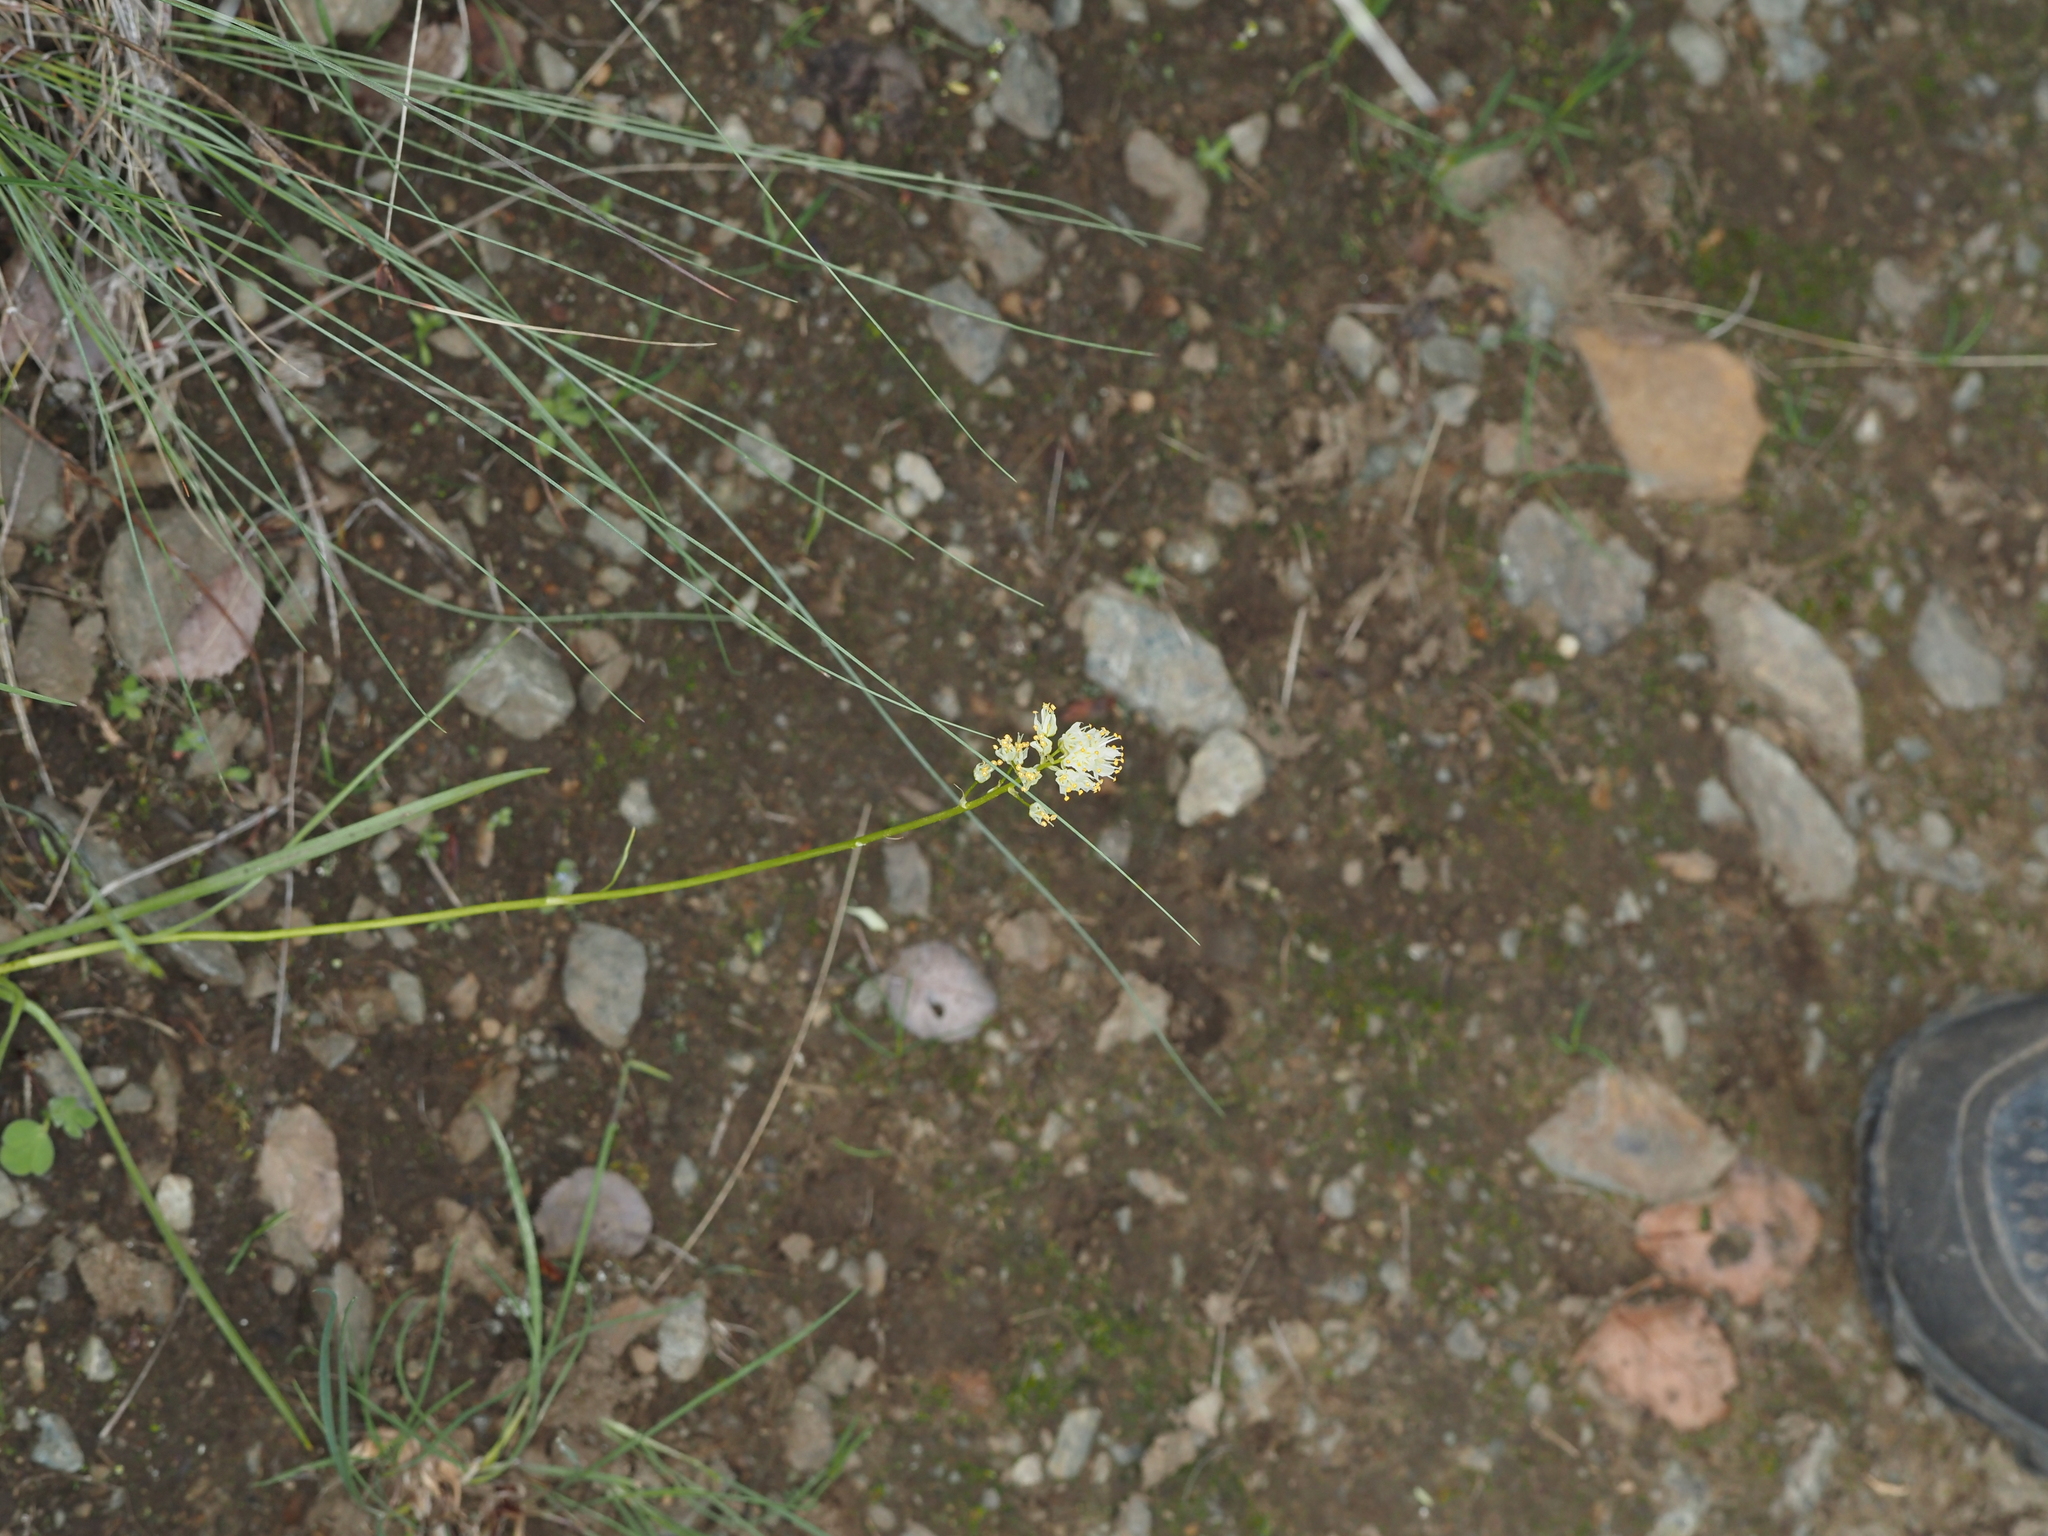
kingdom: Plantae
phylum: Tracheophyta
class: Liliopsida
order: Liliales
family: Melanthiaceae
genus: Toxicoscordion
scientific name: Toxicoscordion venenosum
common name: Meadow death camas
